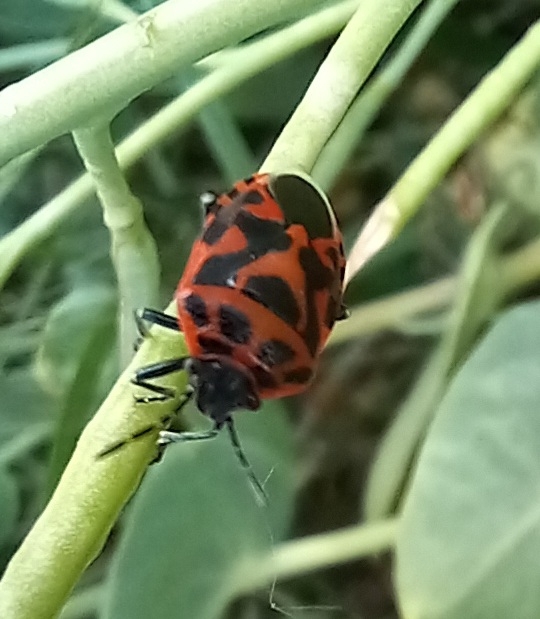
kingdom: Animalia
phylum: Arthropoda
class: Insecta
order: Hemiptera
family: Pentatomidae
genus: Eurydema
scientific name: Eurydema ornata
